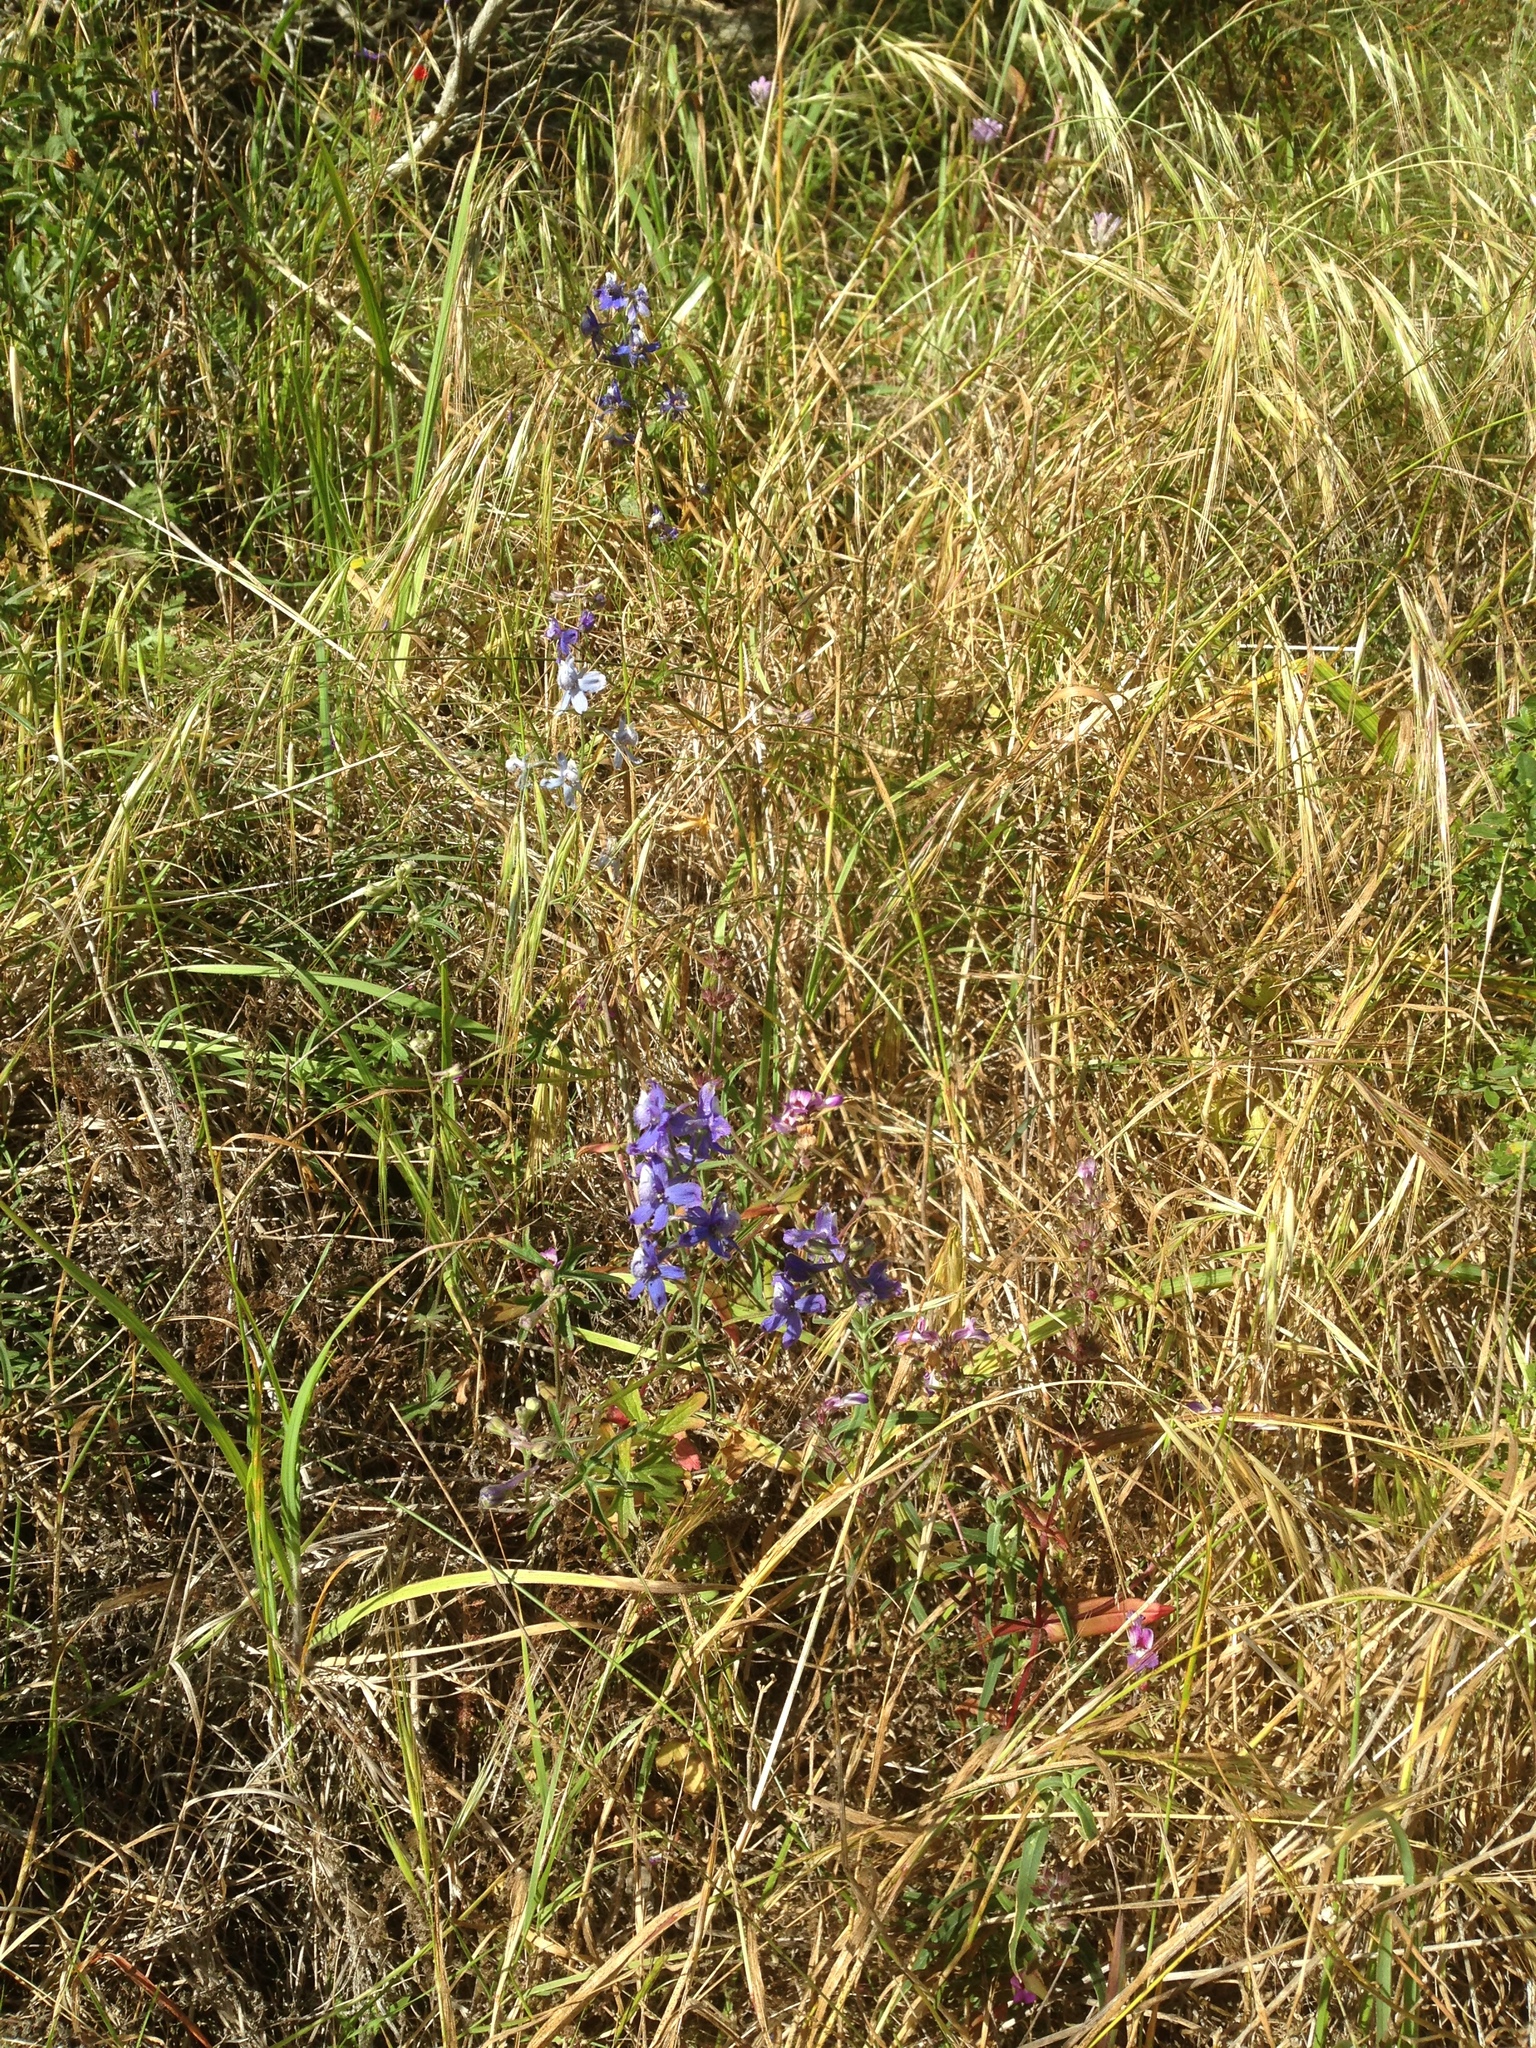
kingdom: Plantae
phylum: Tracheophyta
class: Magnoliopsida
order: Ranunculales
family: Ranunculaceae
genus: Delphinium
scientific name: Delphinium parryi
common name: Parry's larkspur
